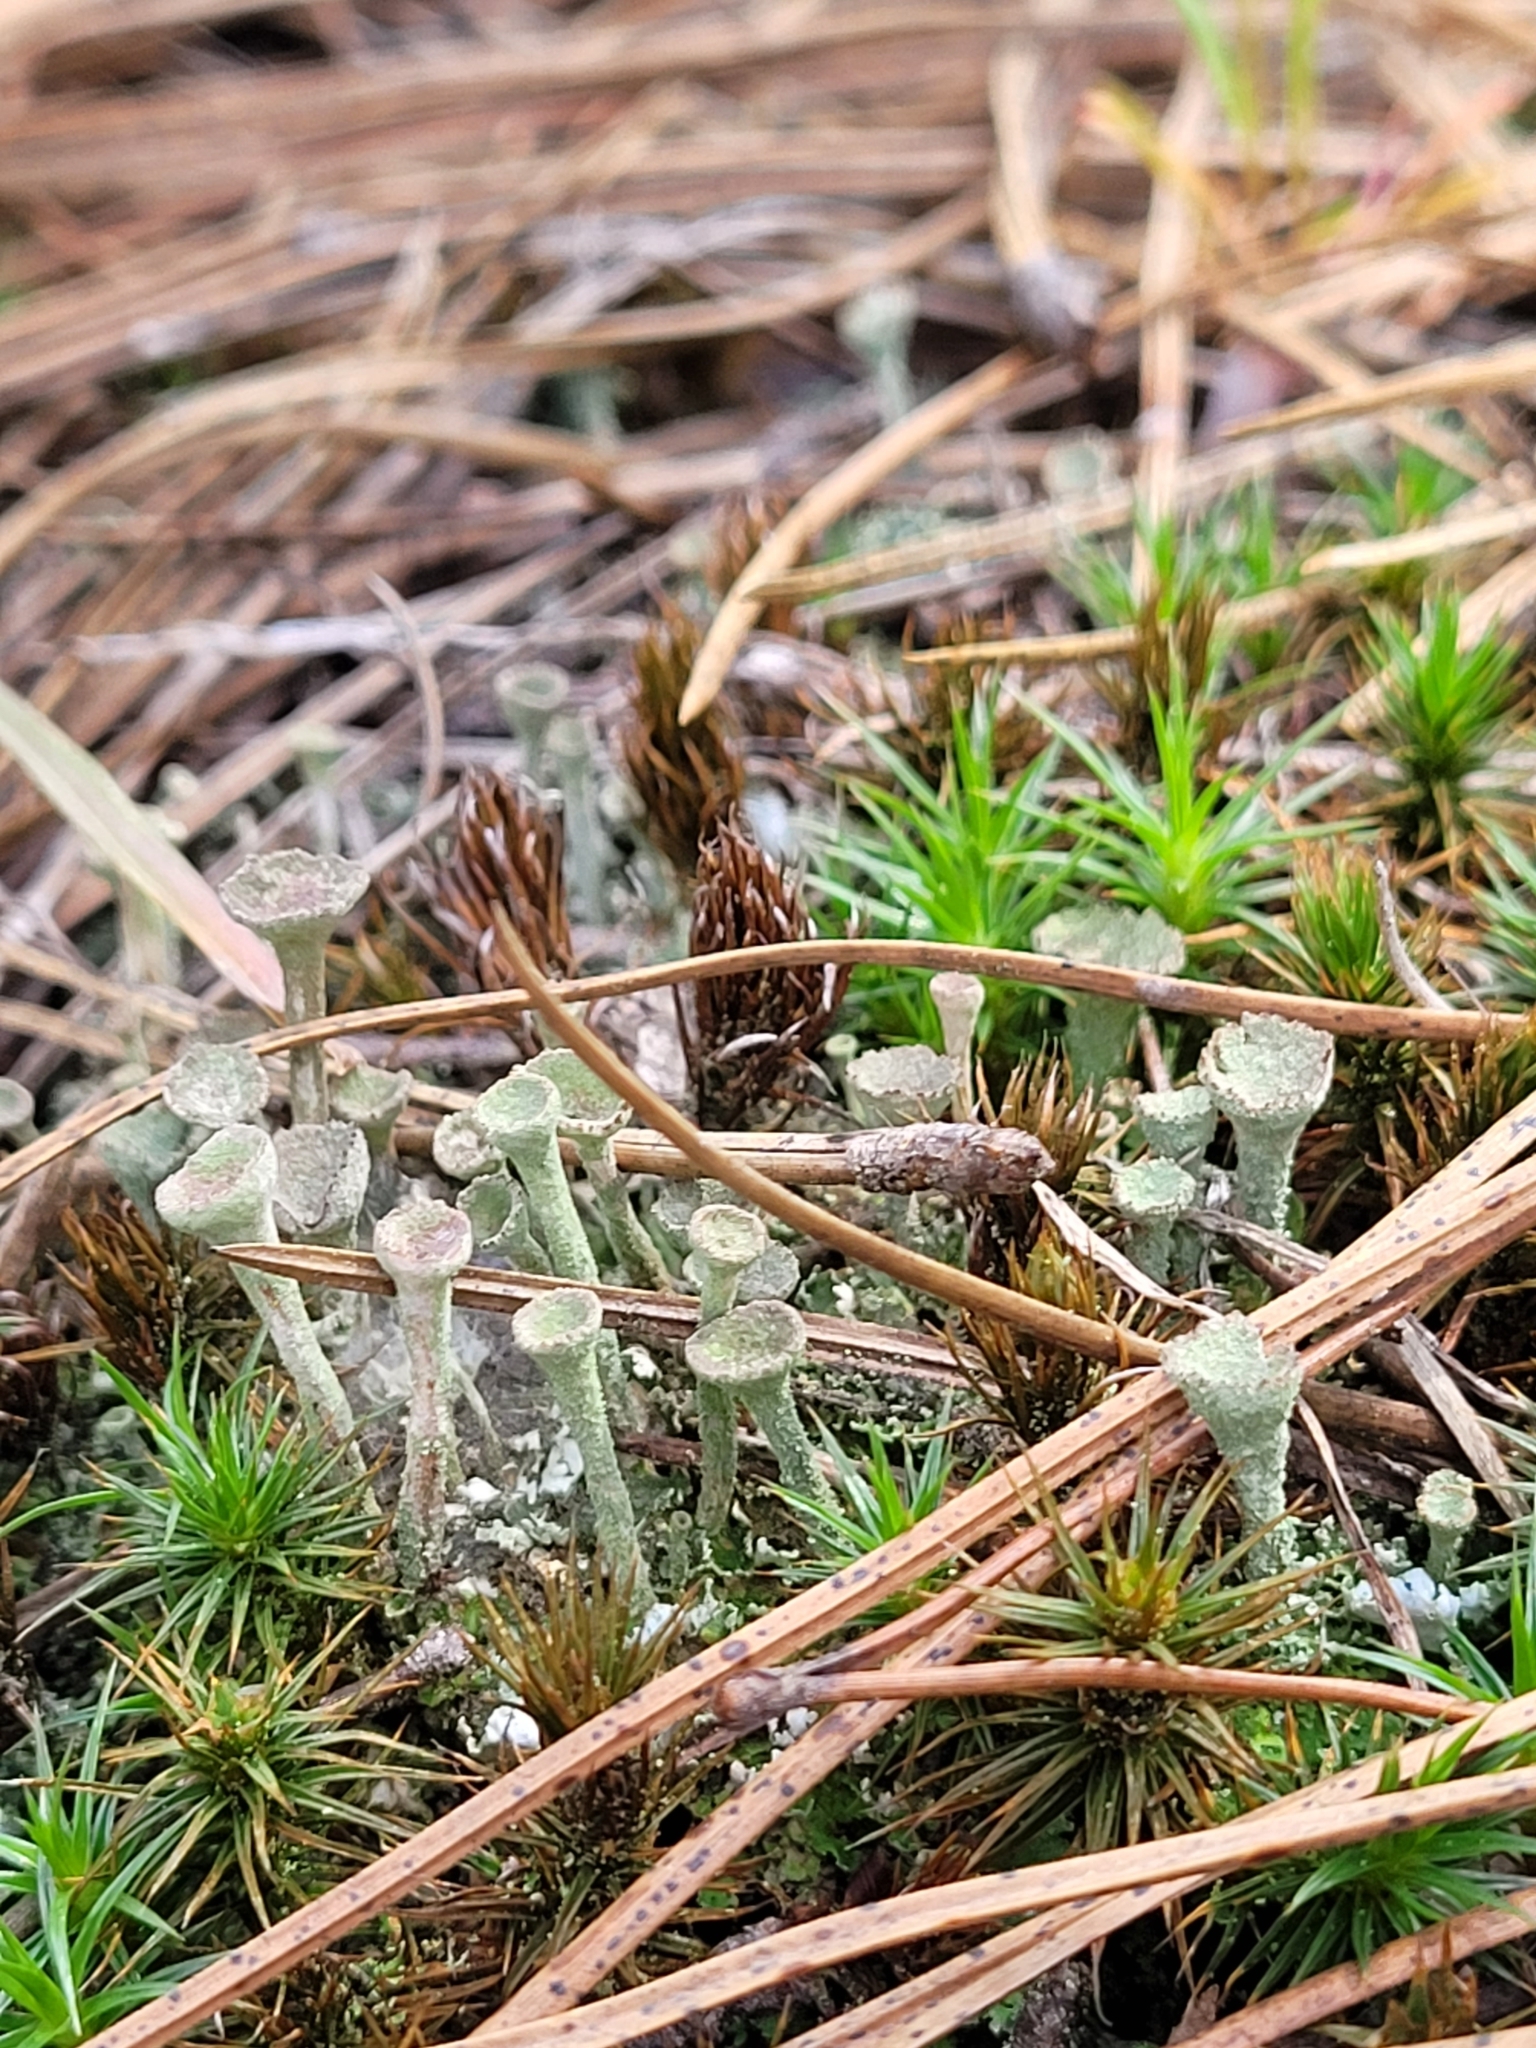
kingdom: Plantae
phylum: Bryophyta
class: Polytrichopsida
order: Polytrichales
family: Polytrichaceae
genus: Polytrichum
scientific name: Polytrichum juniperinum
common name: Juniper haircap moss
